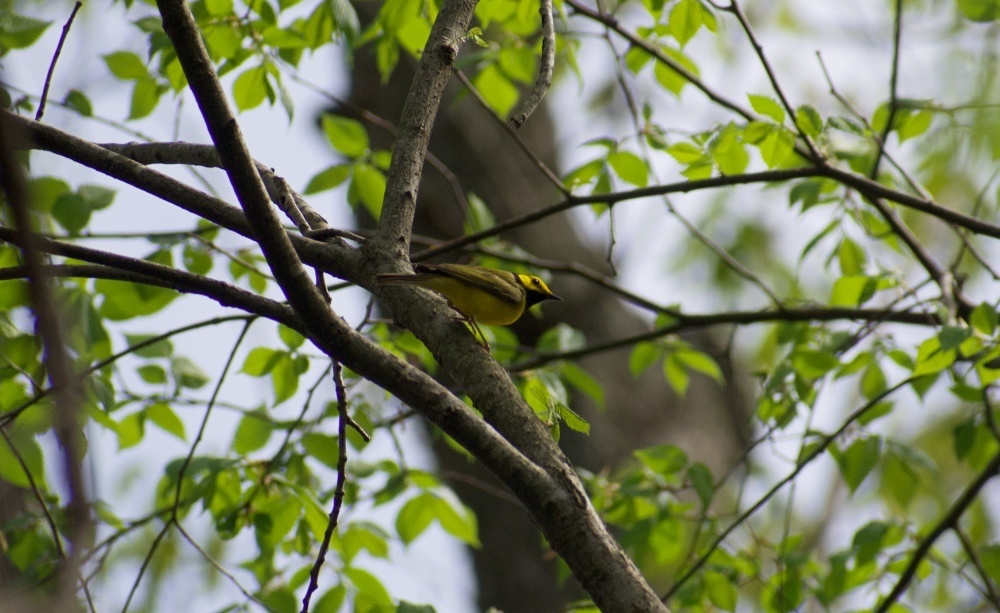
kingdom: Animalia
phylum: Chordata
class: Aves
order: Passeriformes
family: Parulidae
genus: Setophaga
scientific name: Setophaga citrina
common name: Hooded warbler
